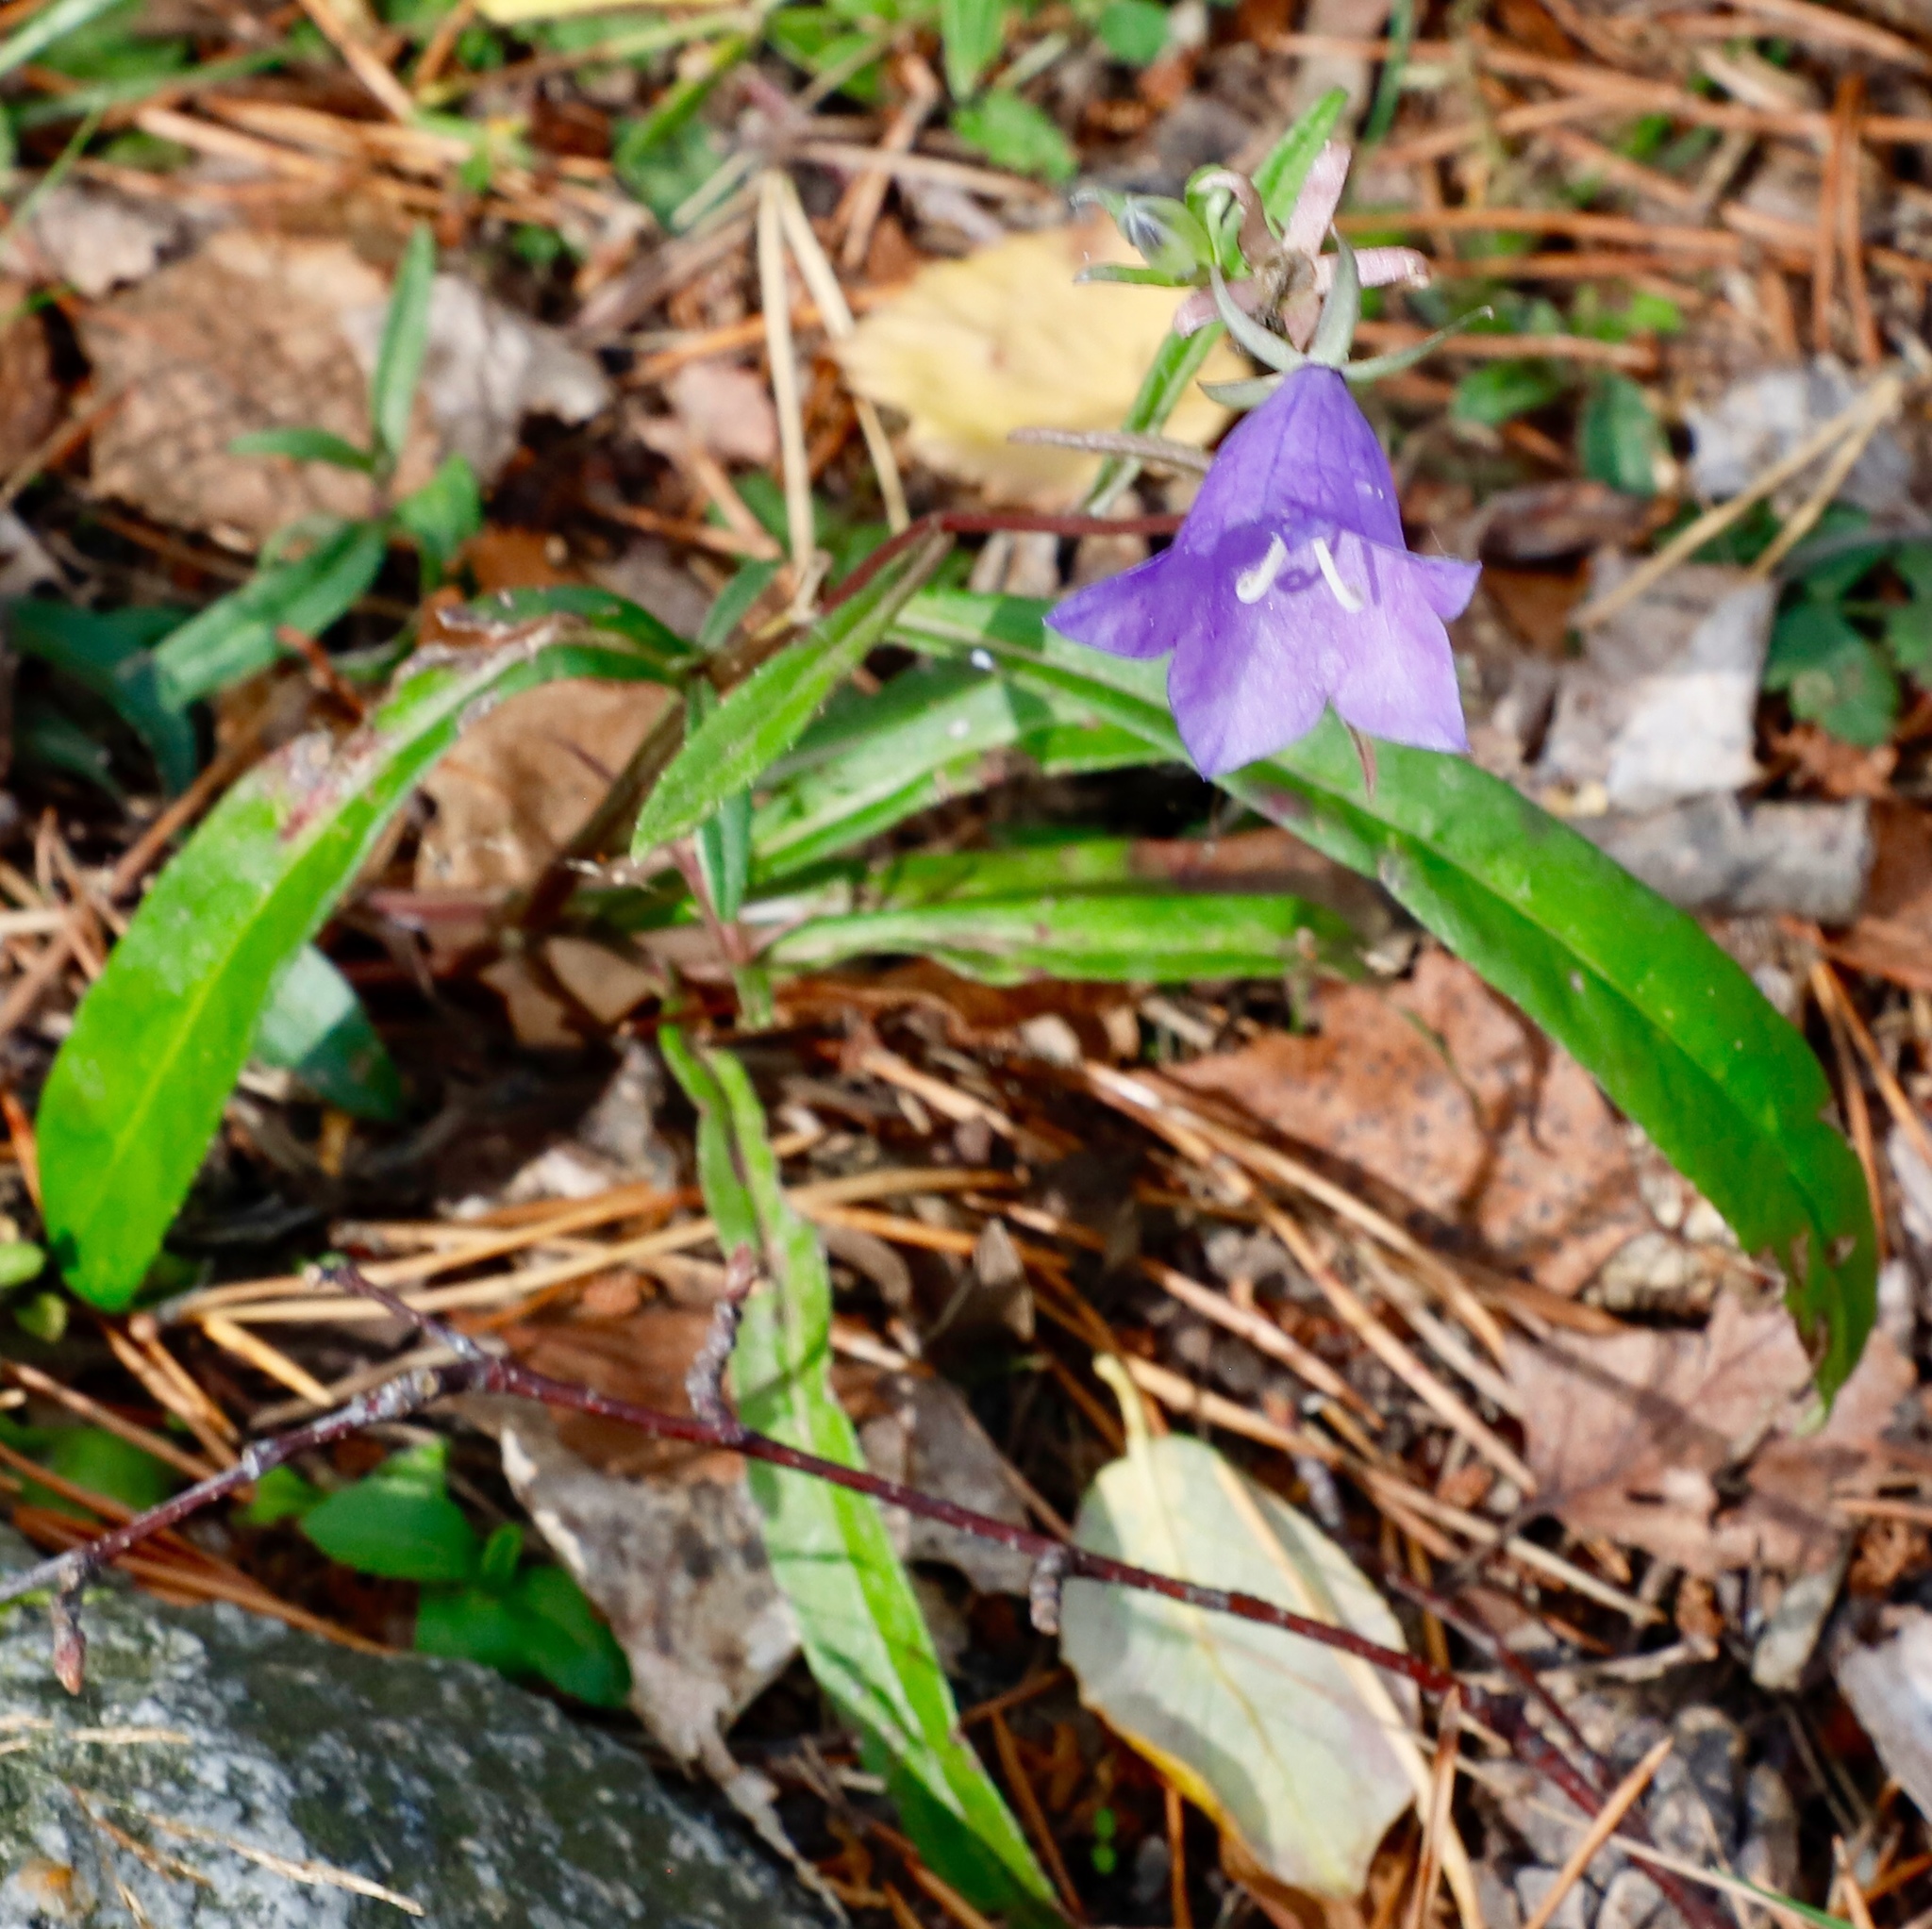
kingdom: Plantae
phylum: Tracheophyta
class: Magnoliopsida
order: Asterales
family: Campanulaceae
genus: Campanula
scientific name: Campanula persicifolia
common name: Peach-leaved bellflower
